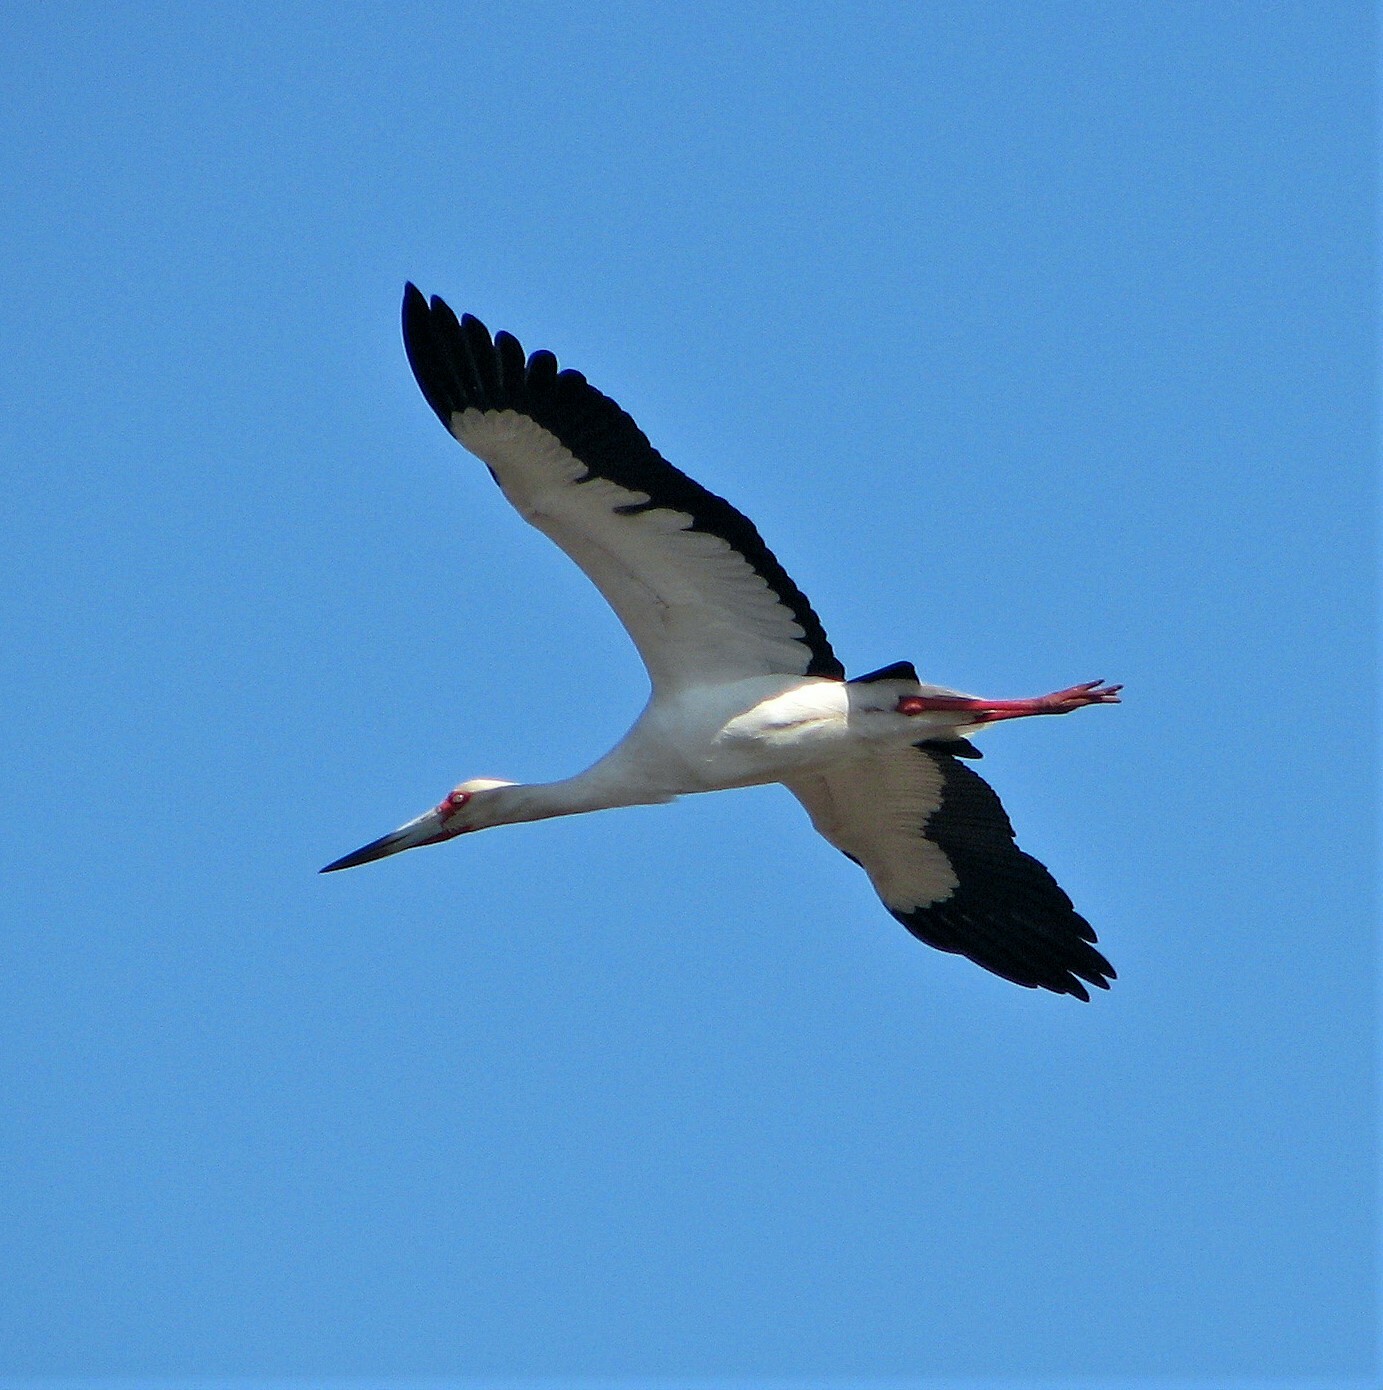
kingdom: Animalia
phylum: Chordata
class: Aves
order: Ciconiiformes
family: Ciconiidae
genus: Ciconia
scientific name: Ciconia maguari
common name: Maguari stork
